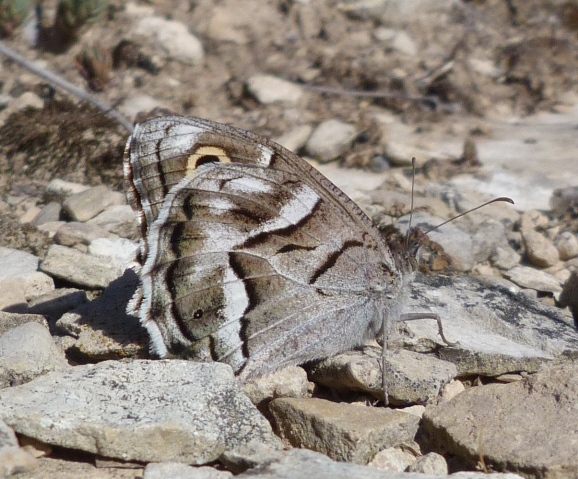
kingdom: Animalia
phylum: Arthropoda
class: Insecta
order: Lepidoptera
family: Nymphalidae
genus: Hipparchia
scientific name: Hipparchia fidia
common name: Striped grayling
